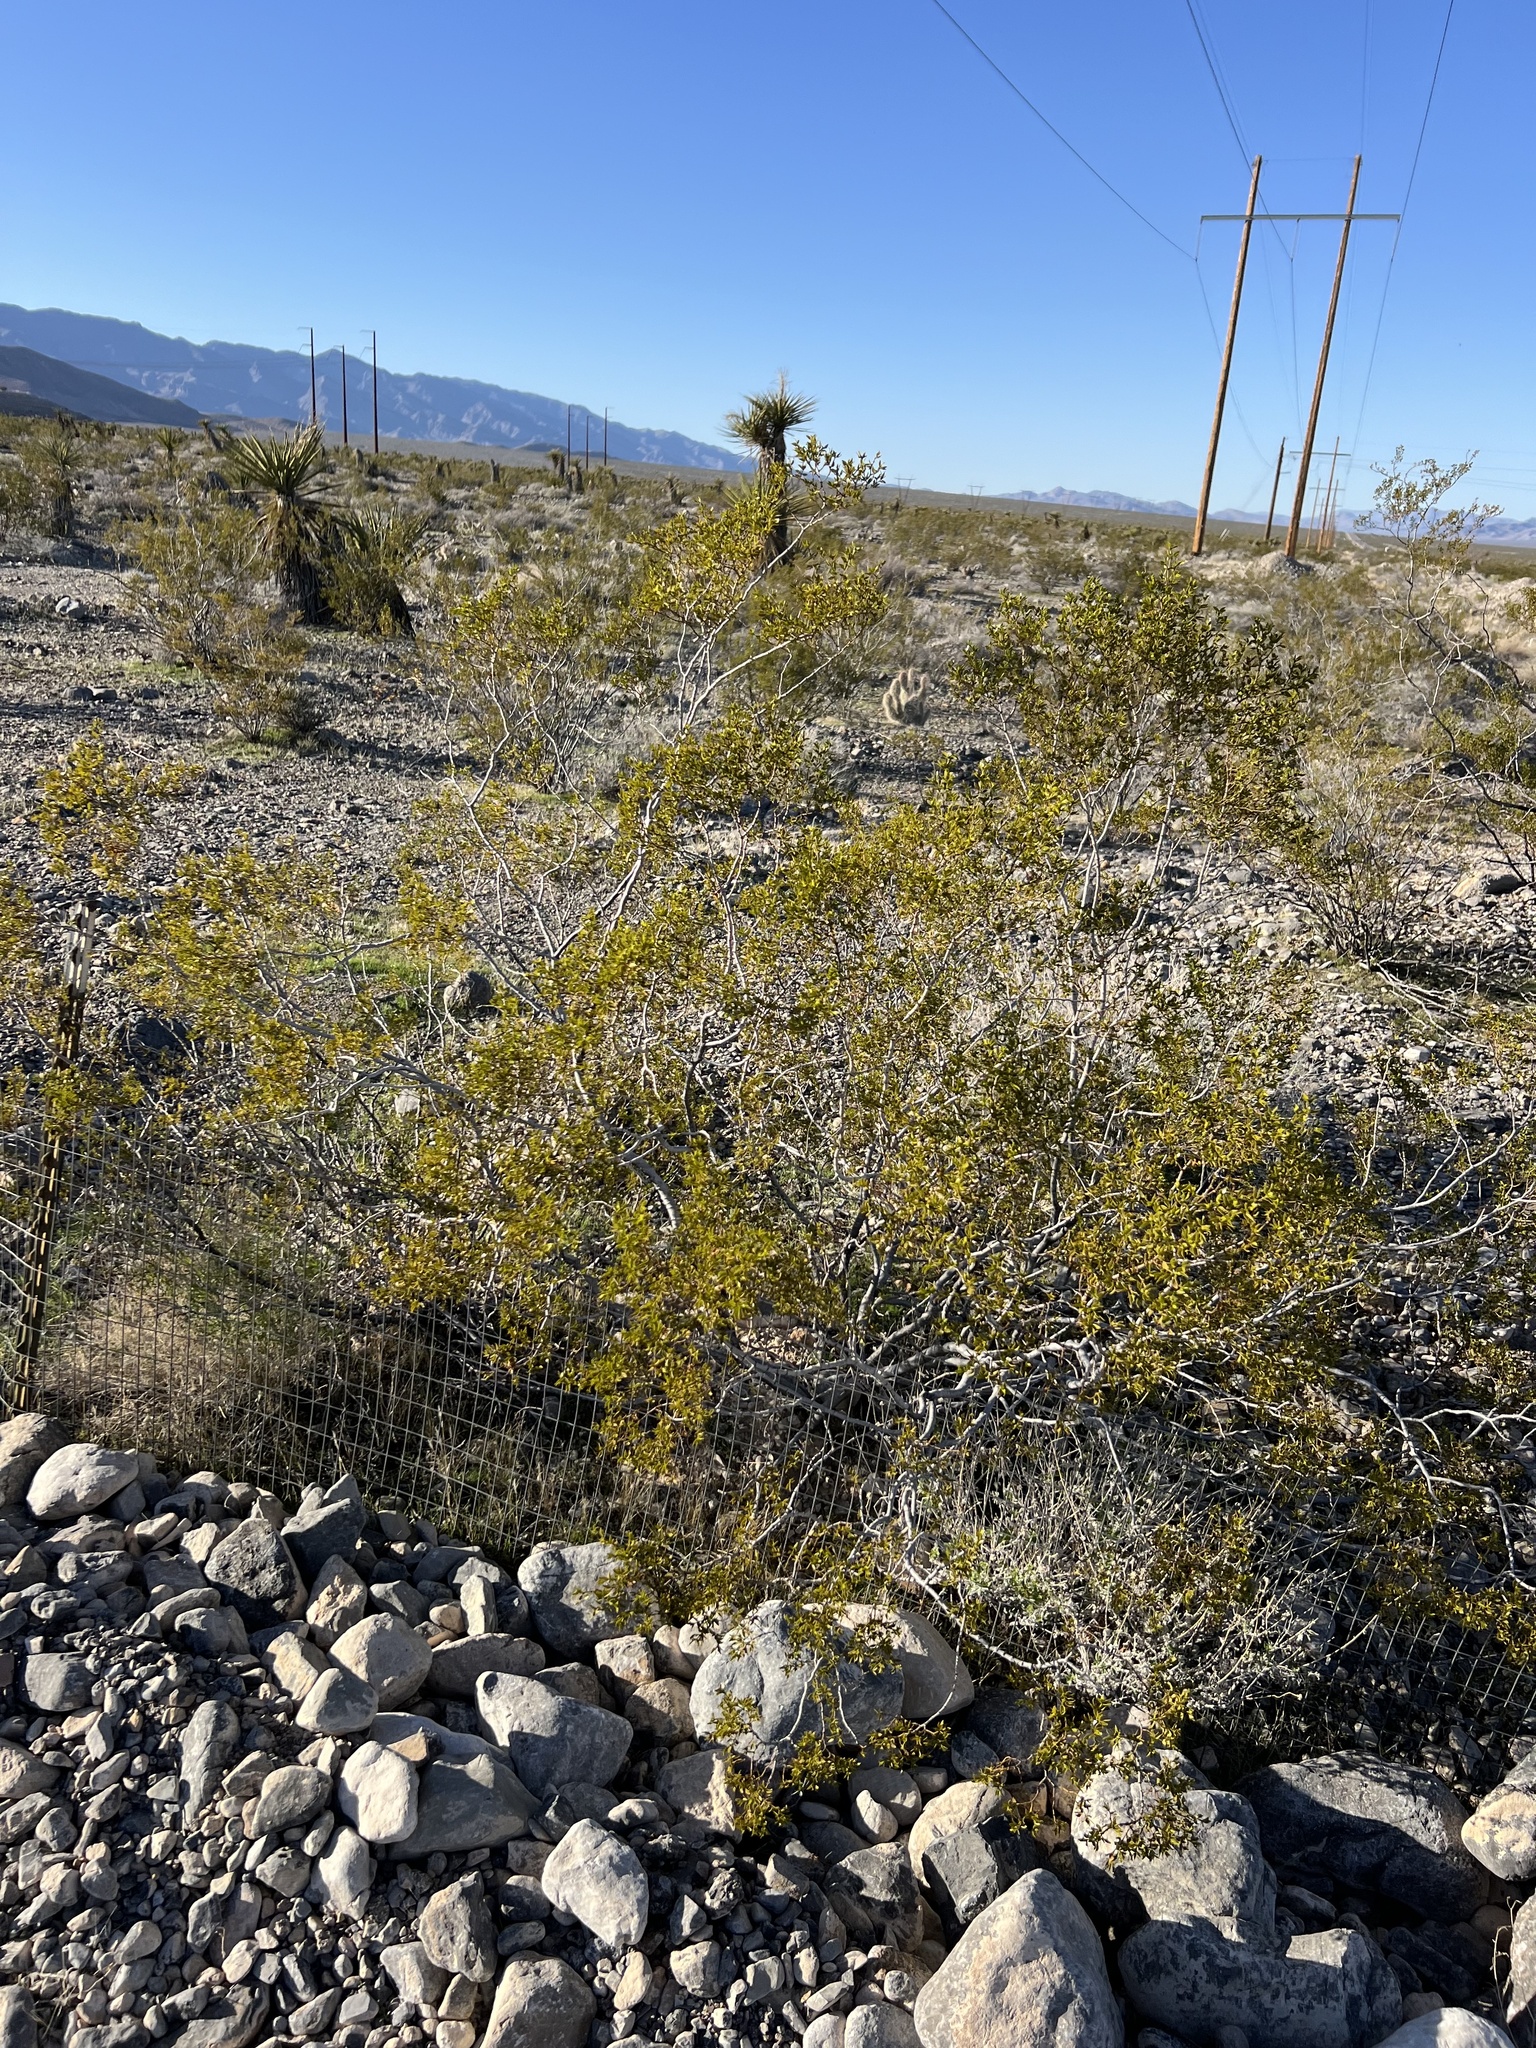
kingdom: Plantae
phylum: Tracheophyta
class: Magnoliopsida
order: Zygophyllales
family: Zygophyllaceae
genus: Larrea
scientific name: Larrea tridentata
